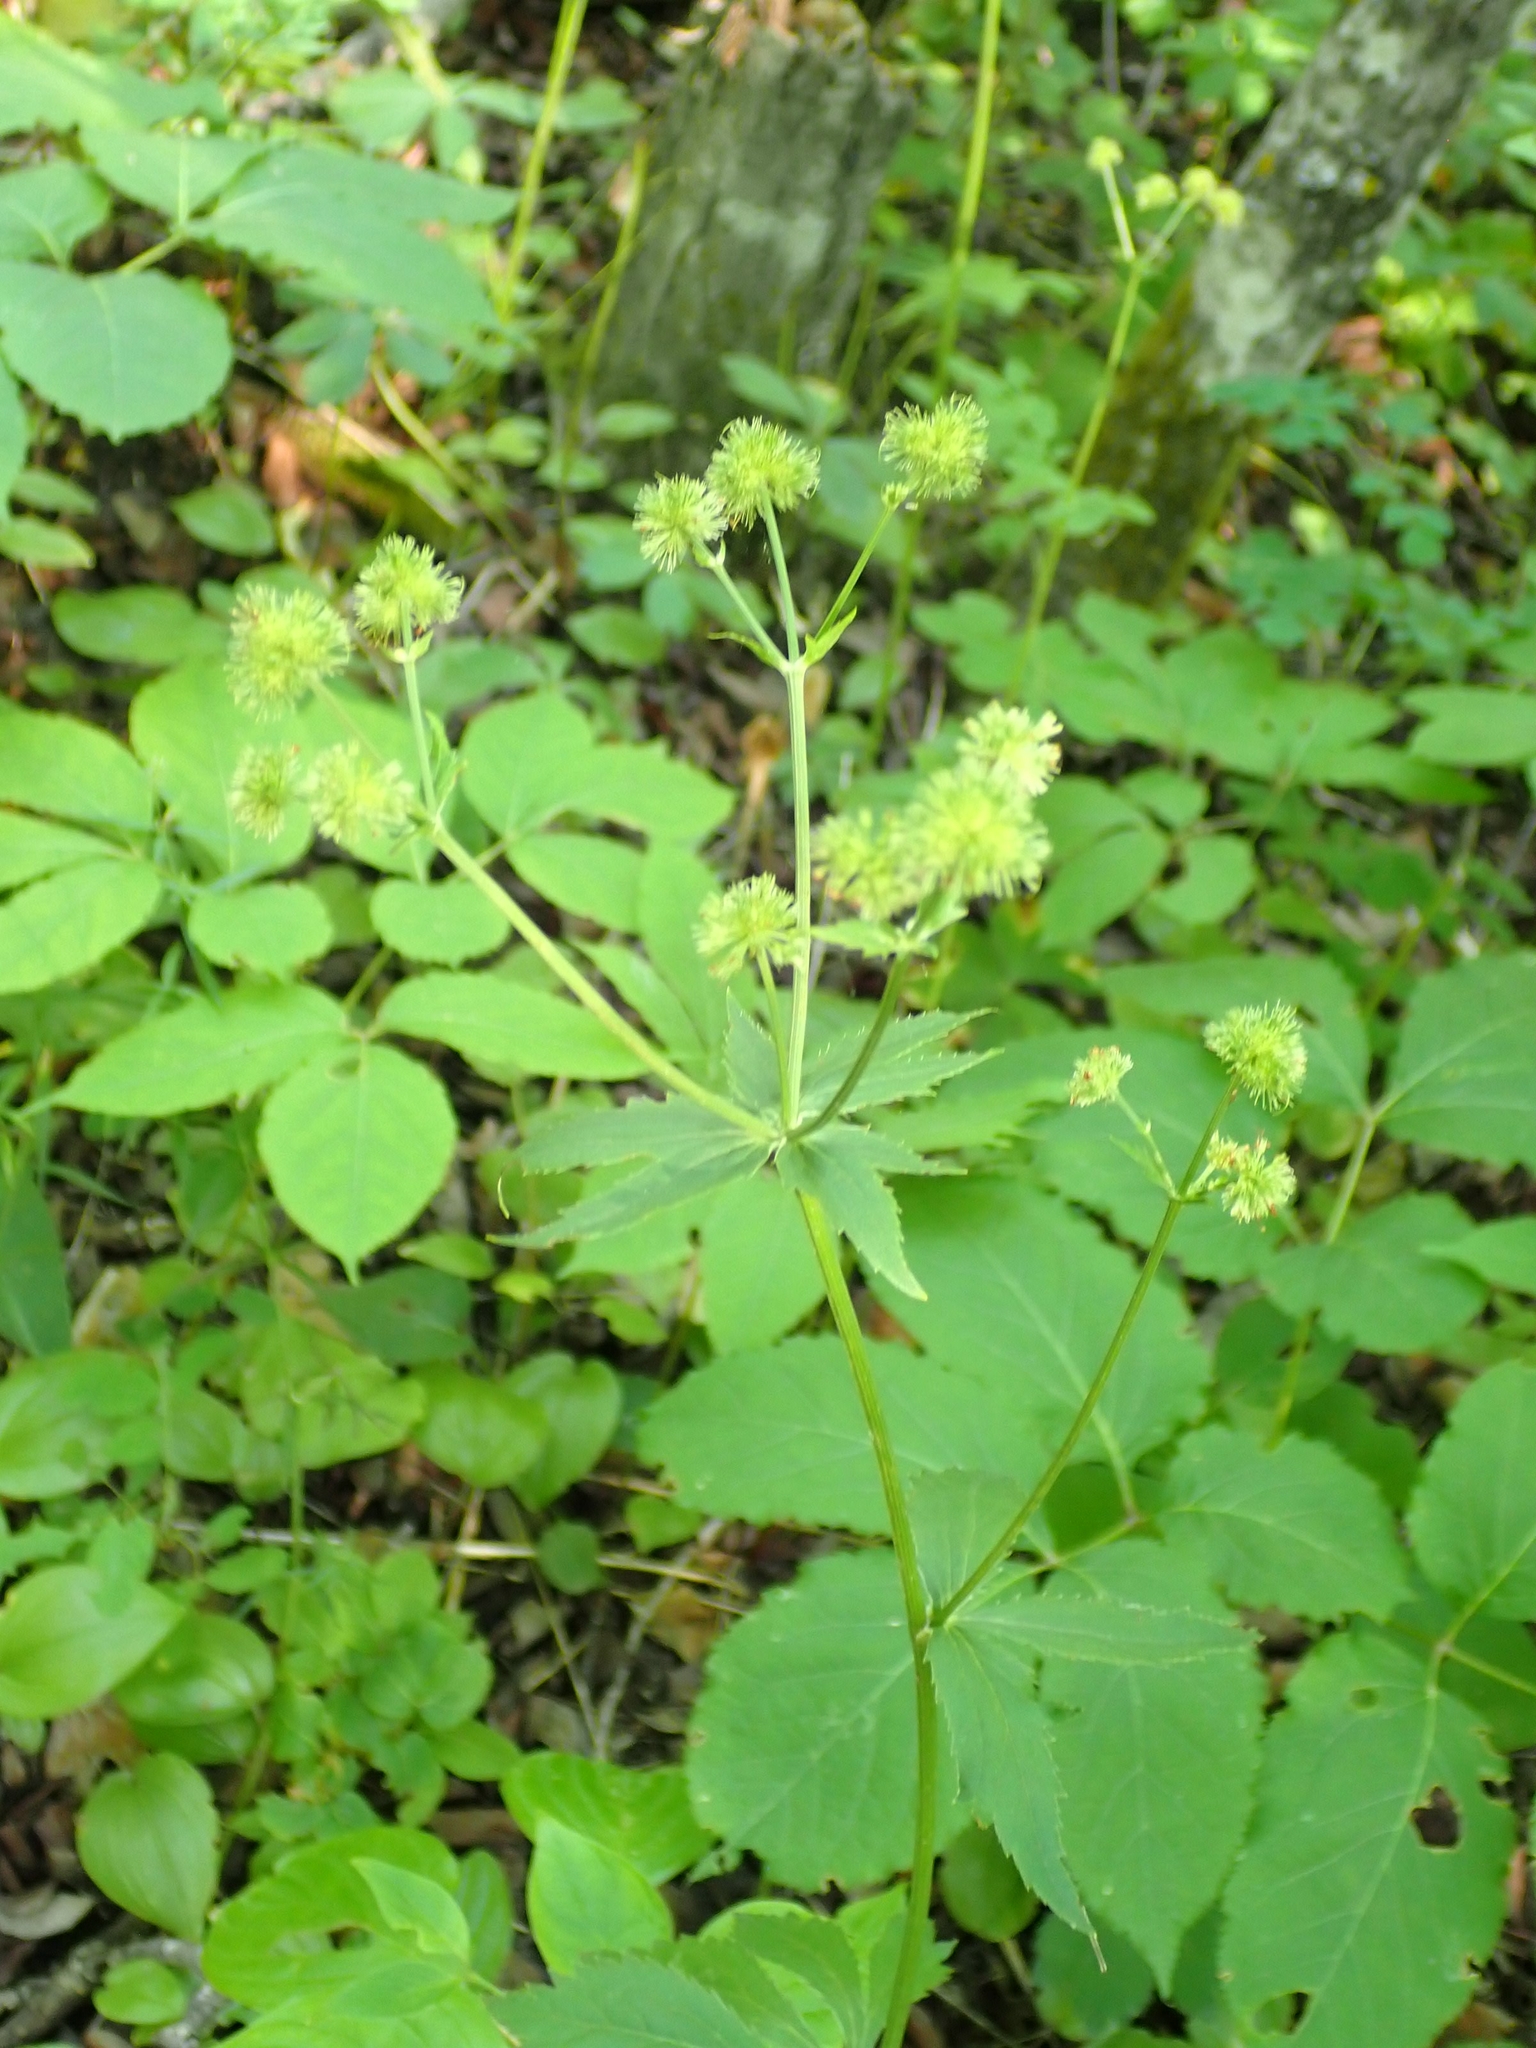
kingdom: Plantae
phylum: Tracheophyta
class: Magnoliopsida
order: Apiales
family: Apiaceae
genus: Sanicula
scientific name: Sanicula marilandica
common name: Black snakeroot
